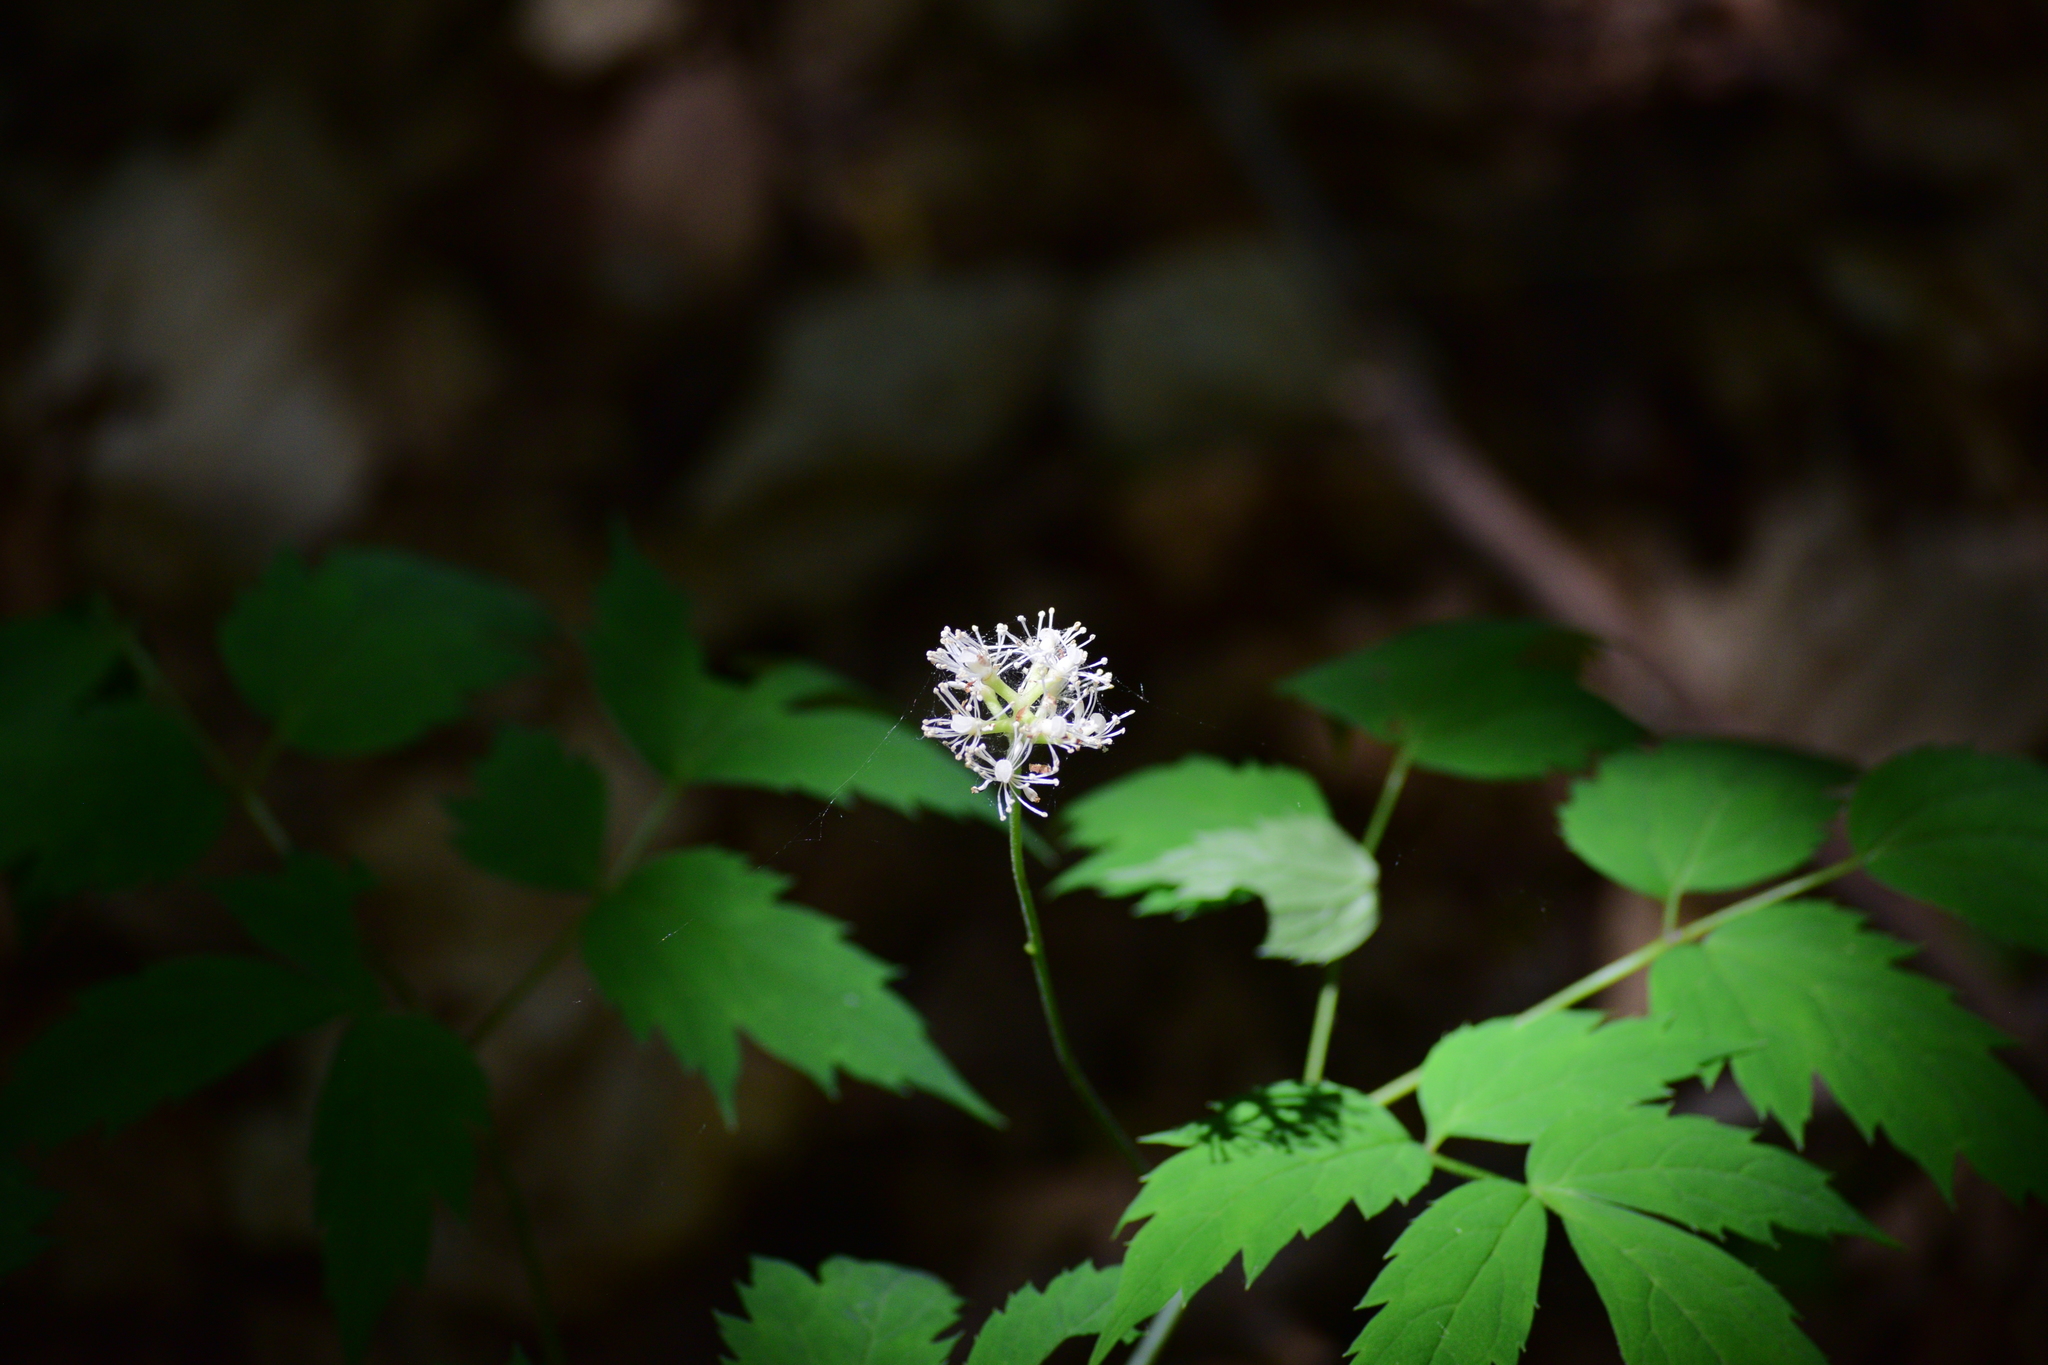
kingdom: Plantae
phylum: Tracheophyta
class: Magnoliopsida
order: Ranunculales
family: Ranunculaceae
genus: Actaea
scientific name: Actaea pachypoda
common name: Doll's-eyes
